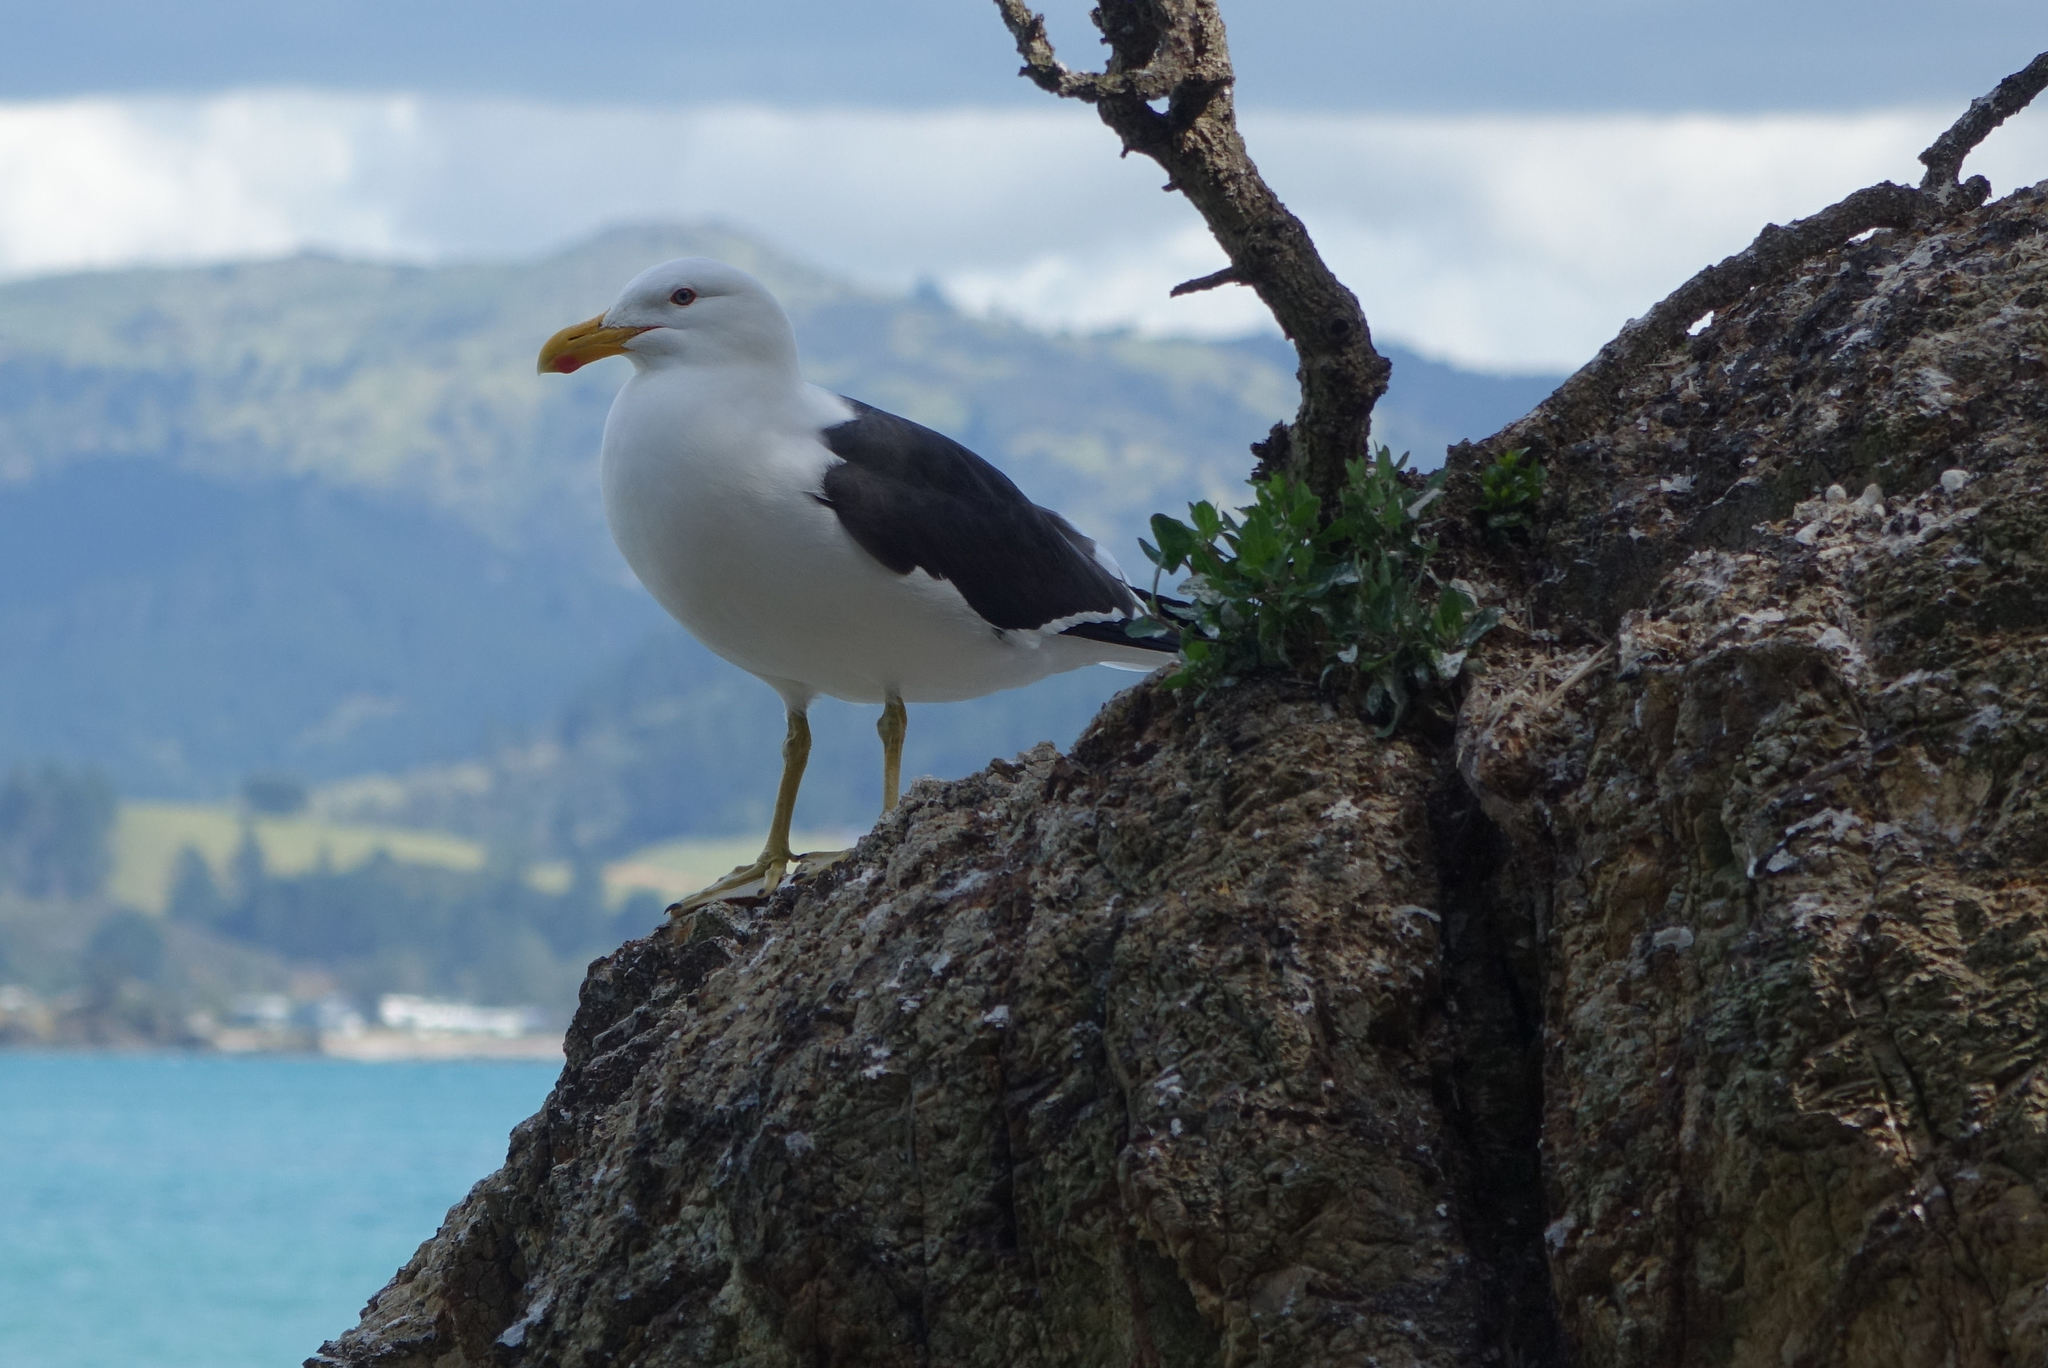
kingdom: Animalia
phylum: Chordata
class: Aves
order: Charadriiformes
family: Laridae
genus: Larus
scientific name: Larus dominicanus
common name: Kelp gull
